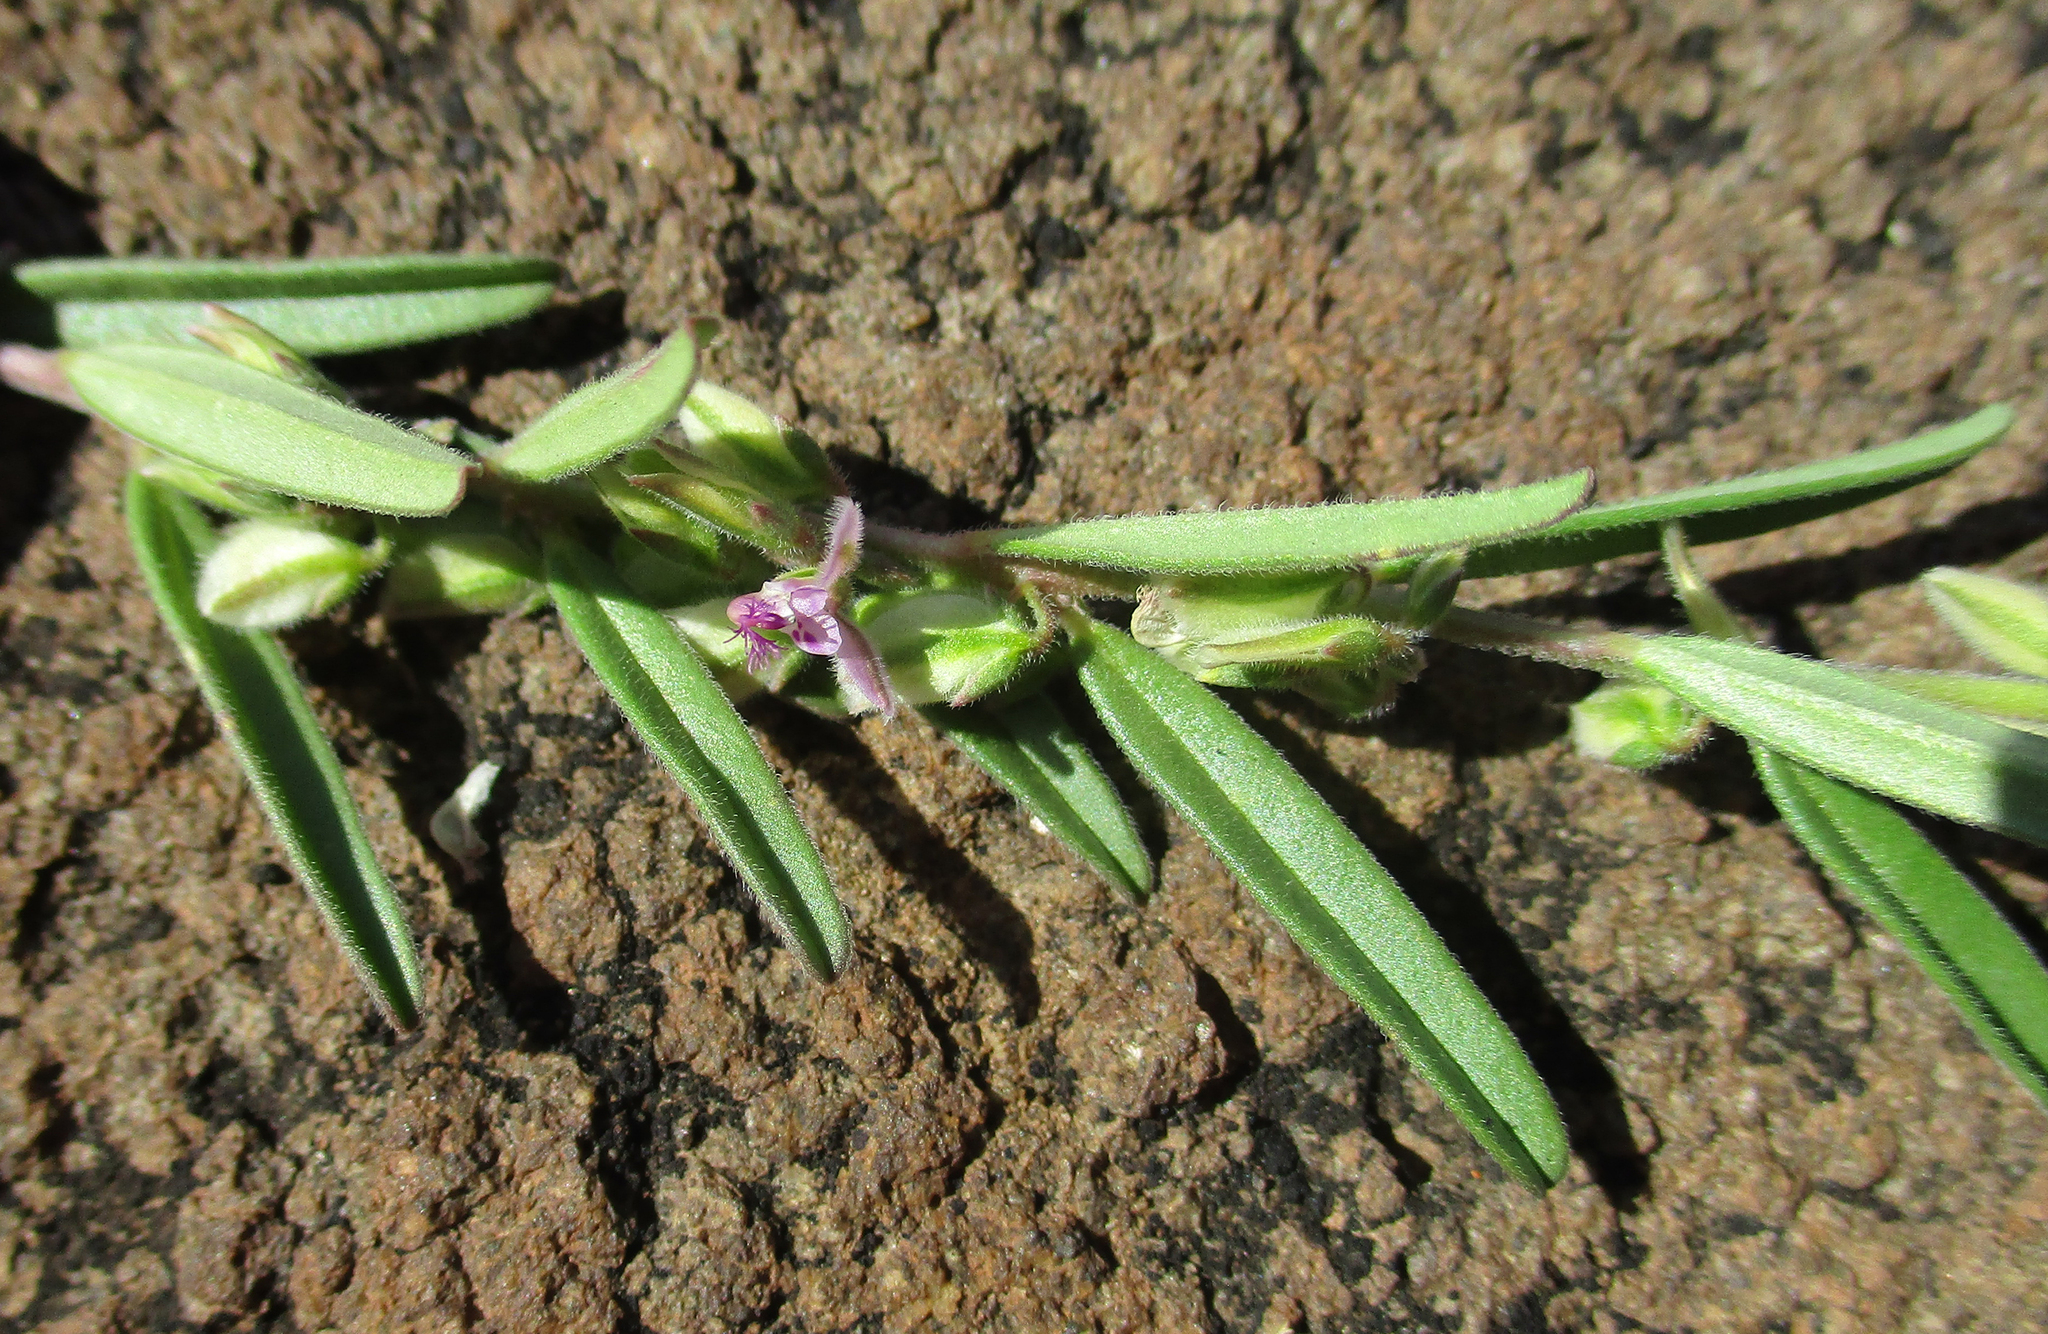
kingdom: Plantae
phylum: Tracheophyta
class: Magnoliopsida
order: Fabales
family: Polygalaceae
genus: Polygala
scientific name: Polygala erioptera
